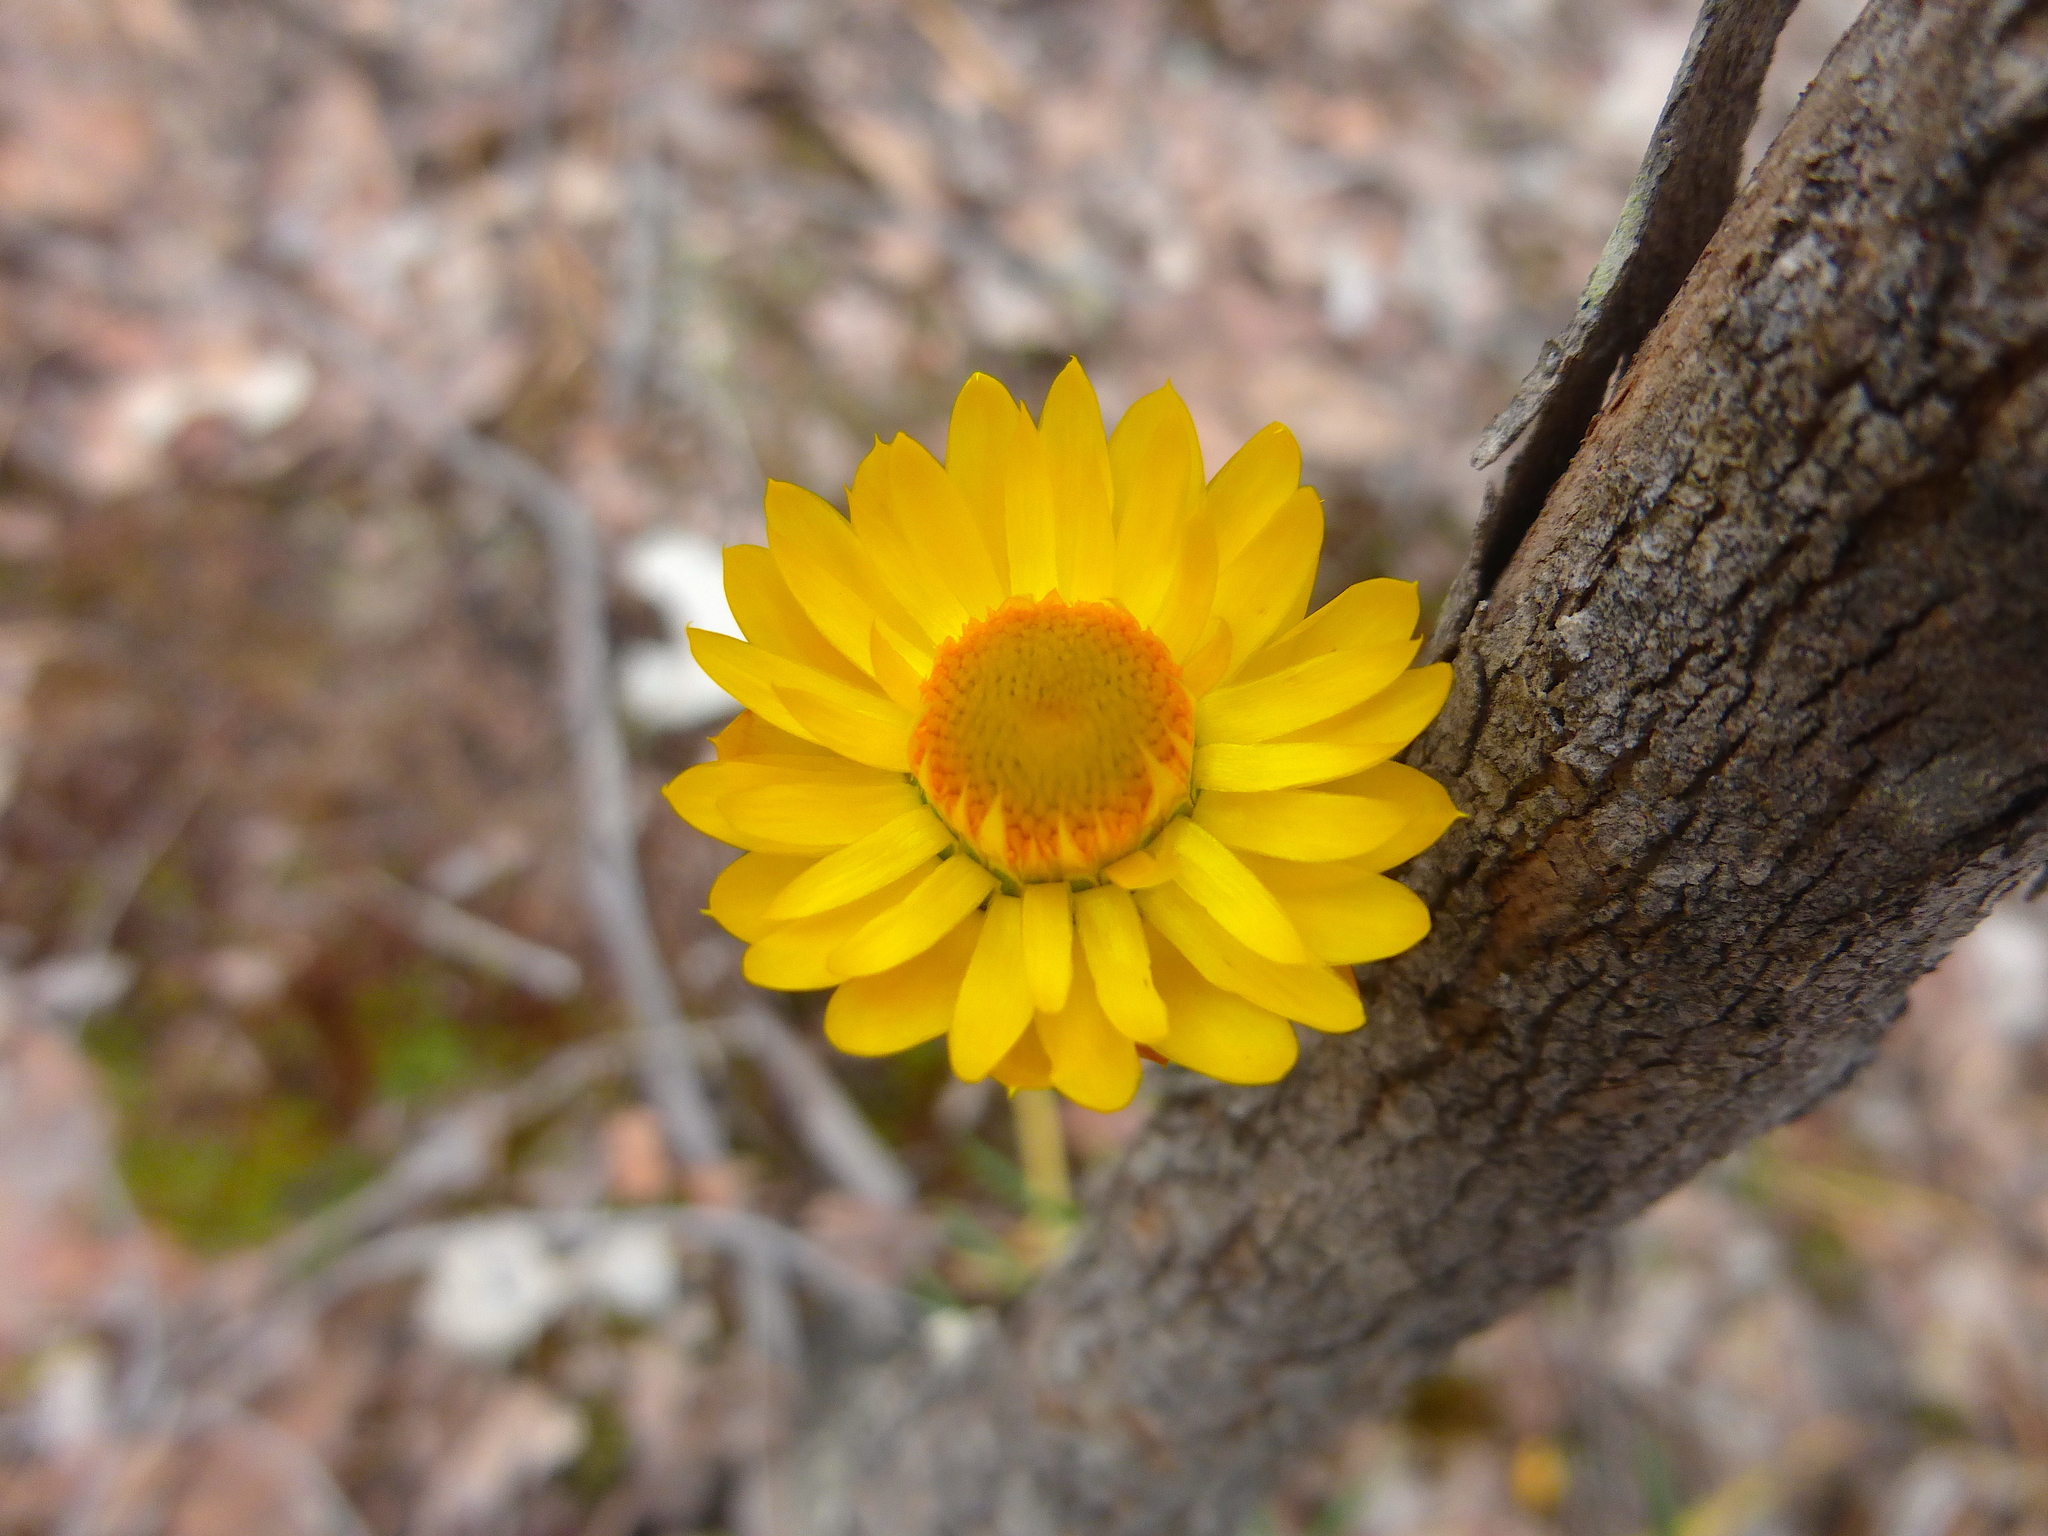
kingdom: Plantae
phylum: Tracheophyta
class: Magnoliopsida
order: Asterales
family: Asteraceae
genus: Xerochrysum
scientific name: Xerochrysum viscosum
